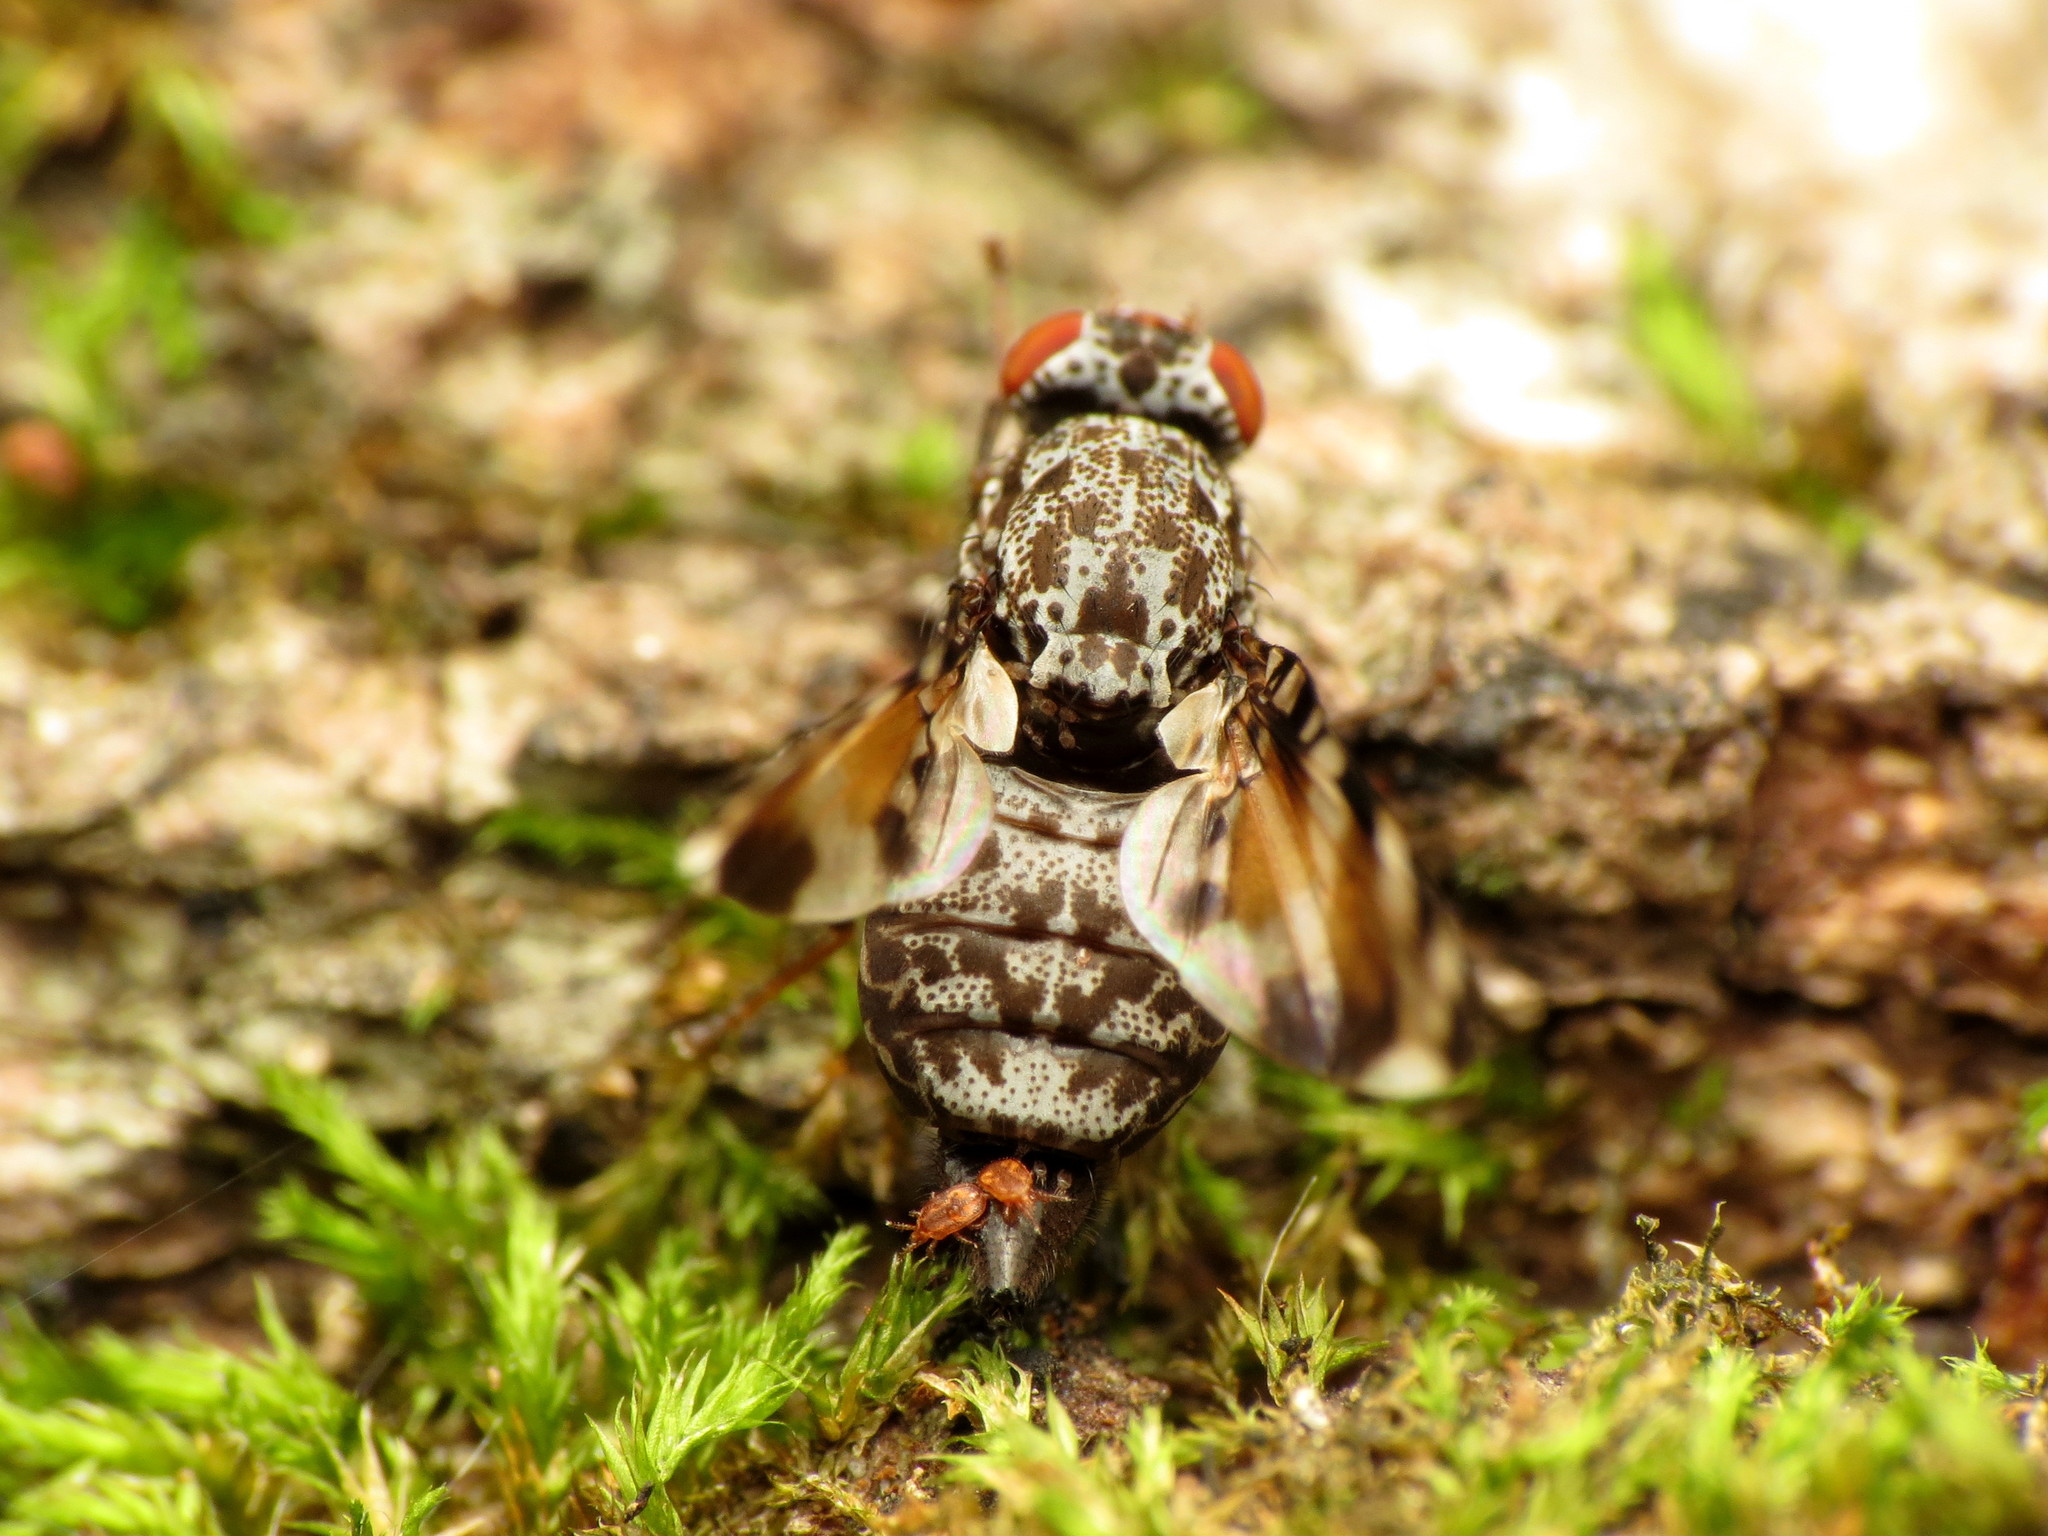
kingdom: Animalia
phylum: Arthropoda
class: Insecta
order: Diptera
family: Ulidiidae
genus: Pseudotephritis
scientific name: Pseudotephritis vau
